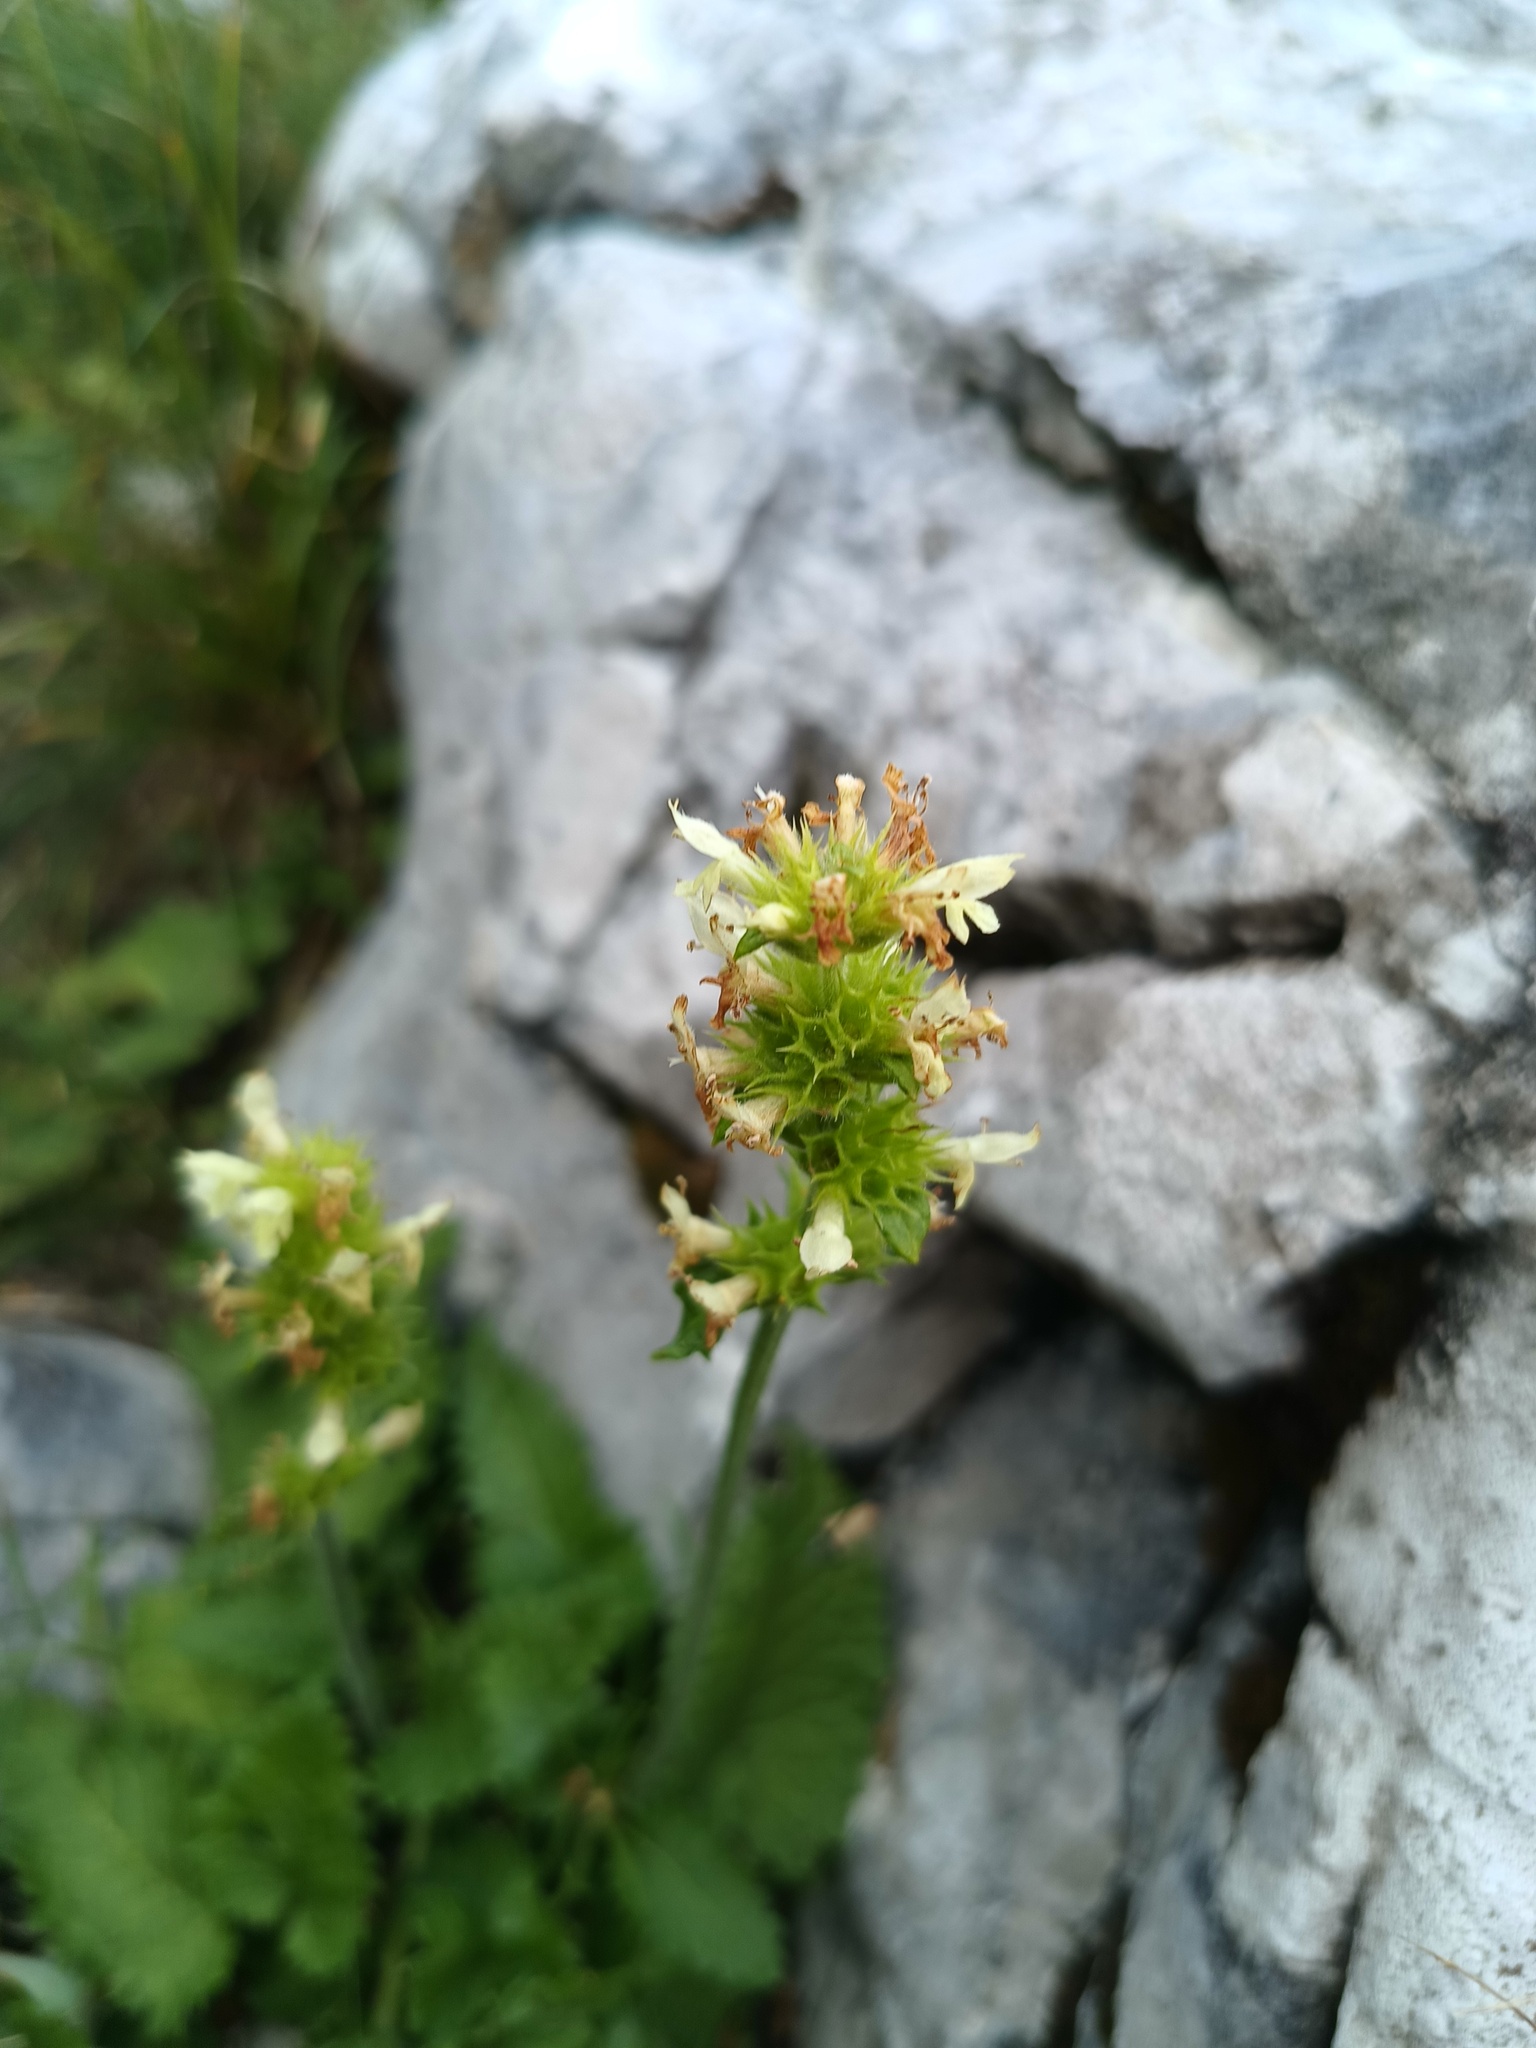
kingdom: Plantae
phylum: Tracheophyta
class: Magnoliopsida
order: Lamiales
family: Lamiaceae
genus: Betonica
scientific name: Betonica alopecuros
